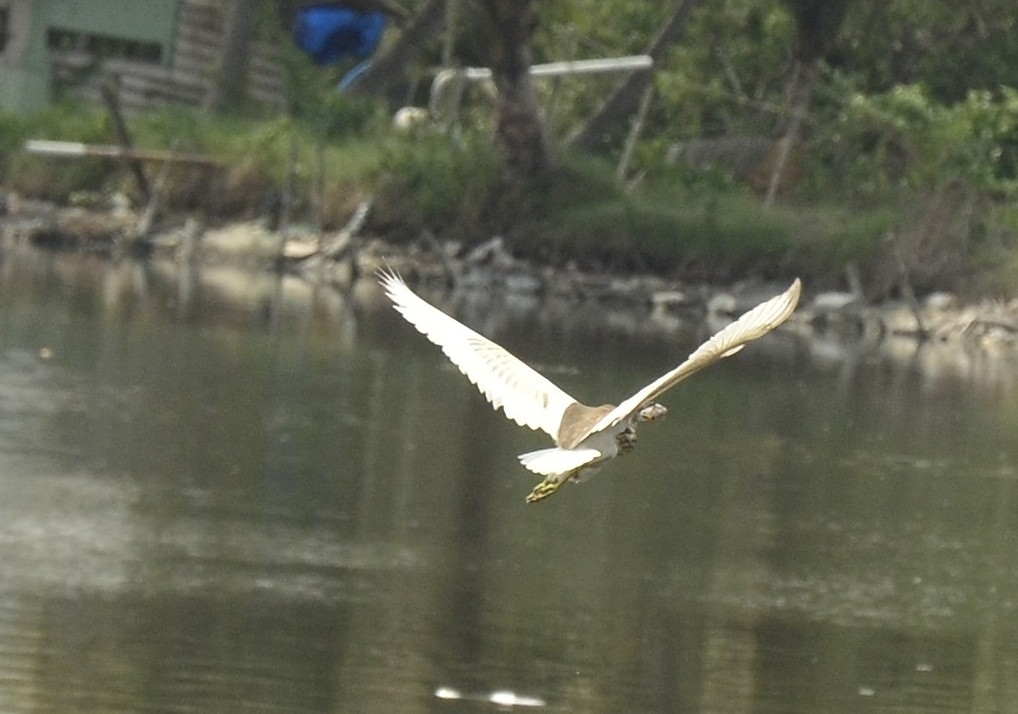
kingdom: Animalia
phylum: Chordata
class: Aves
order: Pelecaniformes
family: Ardeidae
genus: Ardeola
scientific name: Ardeola grayii
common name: Indian pond heron
